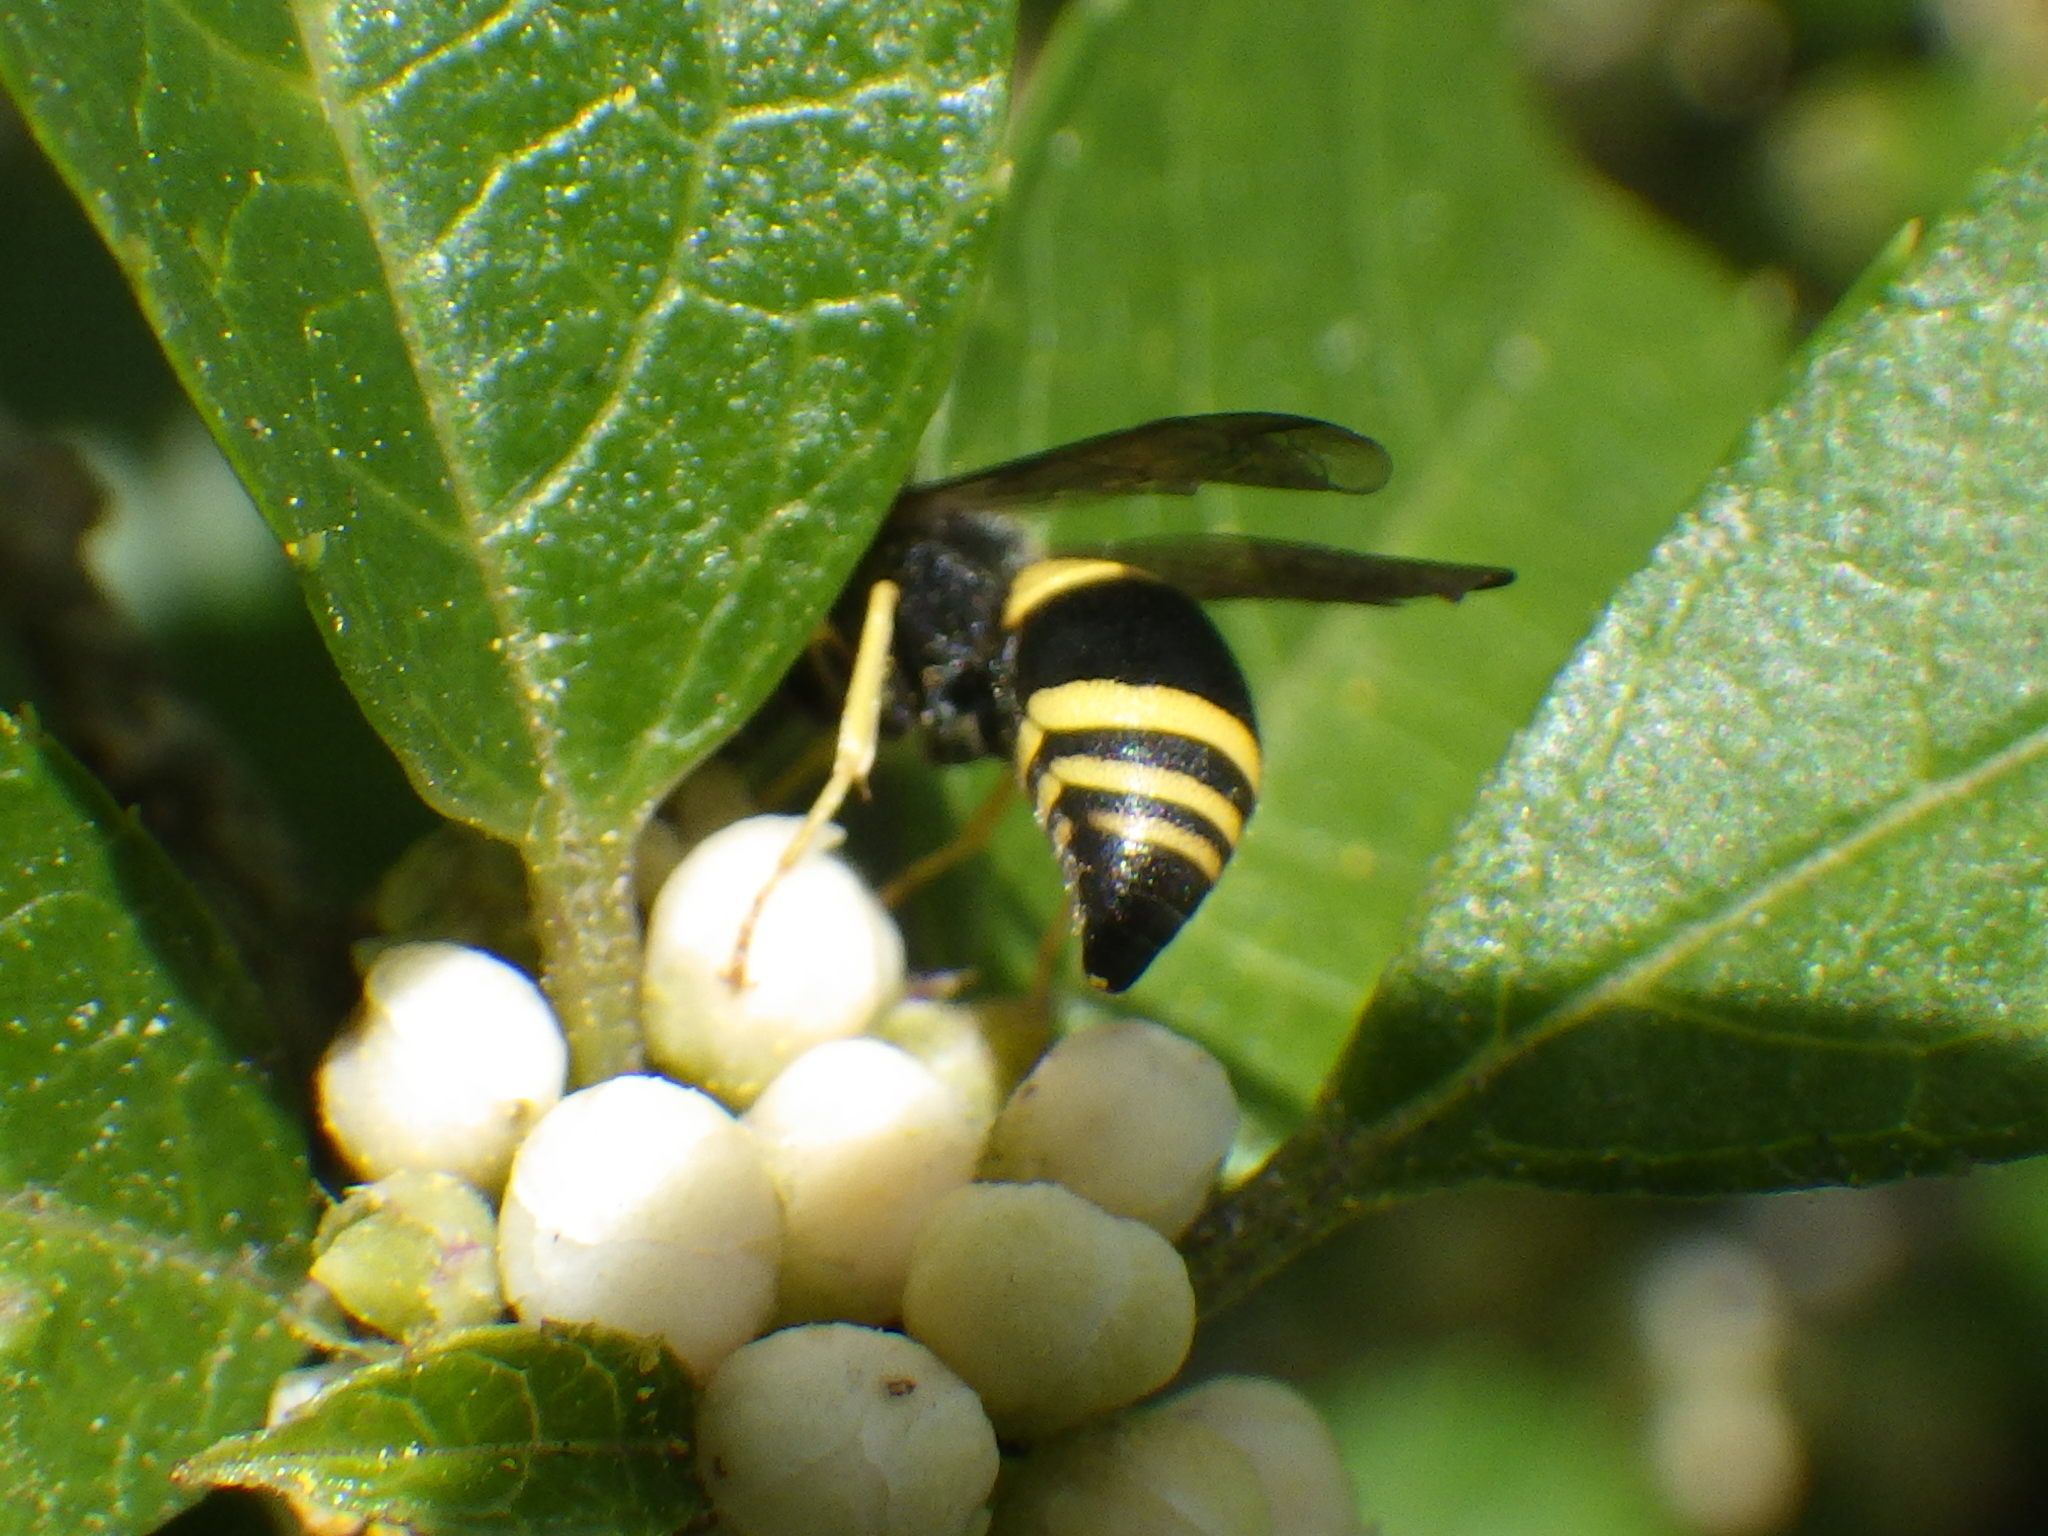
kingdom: Animalia
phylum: Arthropoda
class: Insecta
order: Hymenoptera
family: Vespidae
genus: Ancistrocerus
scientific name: Ancistrocerus parietum
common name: Vespid wasp
